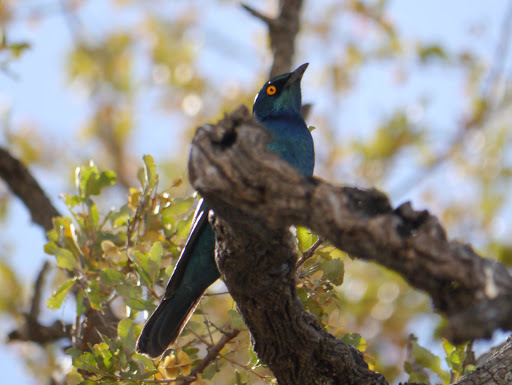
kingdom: Animalia
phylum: Chordata
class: Aves
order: Passeriformes
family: Sturnidae
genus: Lamprotornis
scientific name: Lamprotornis nitens
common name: Cape starling
